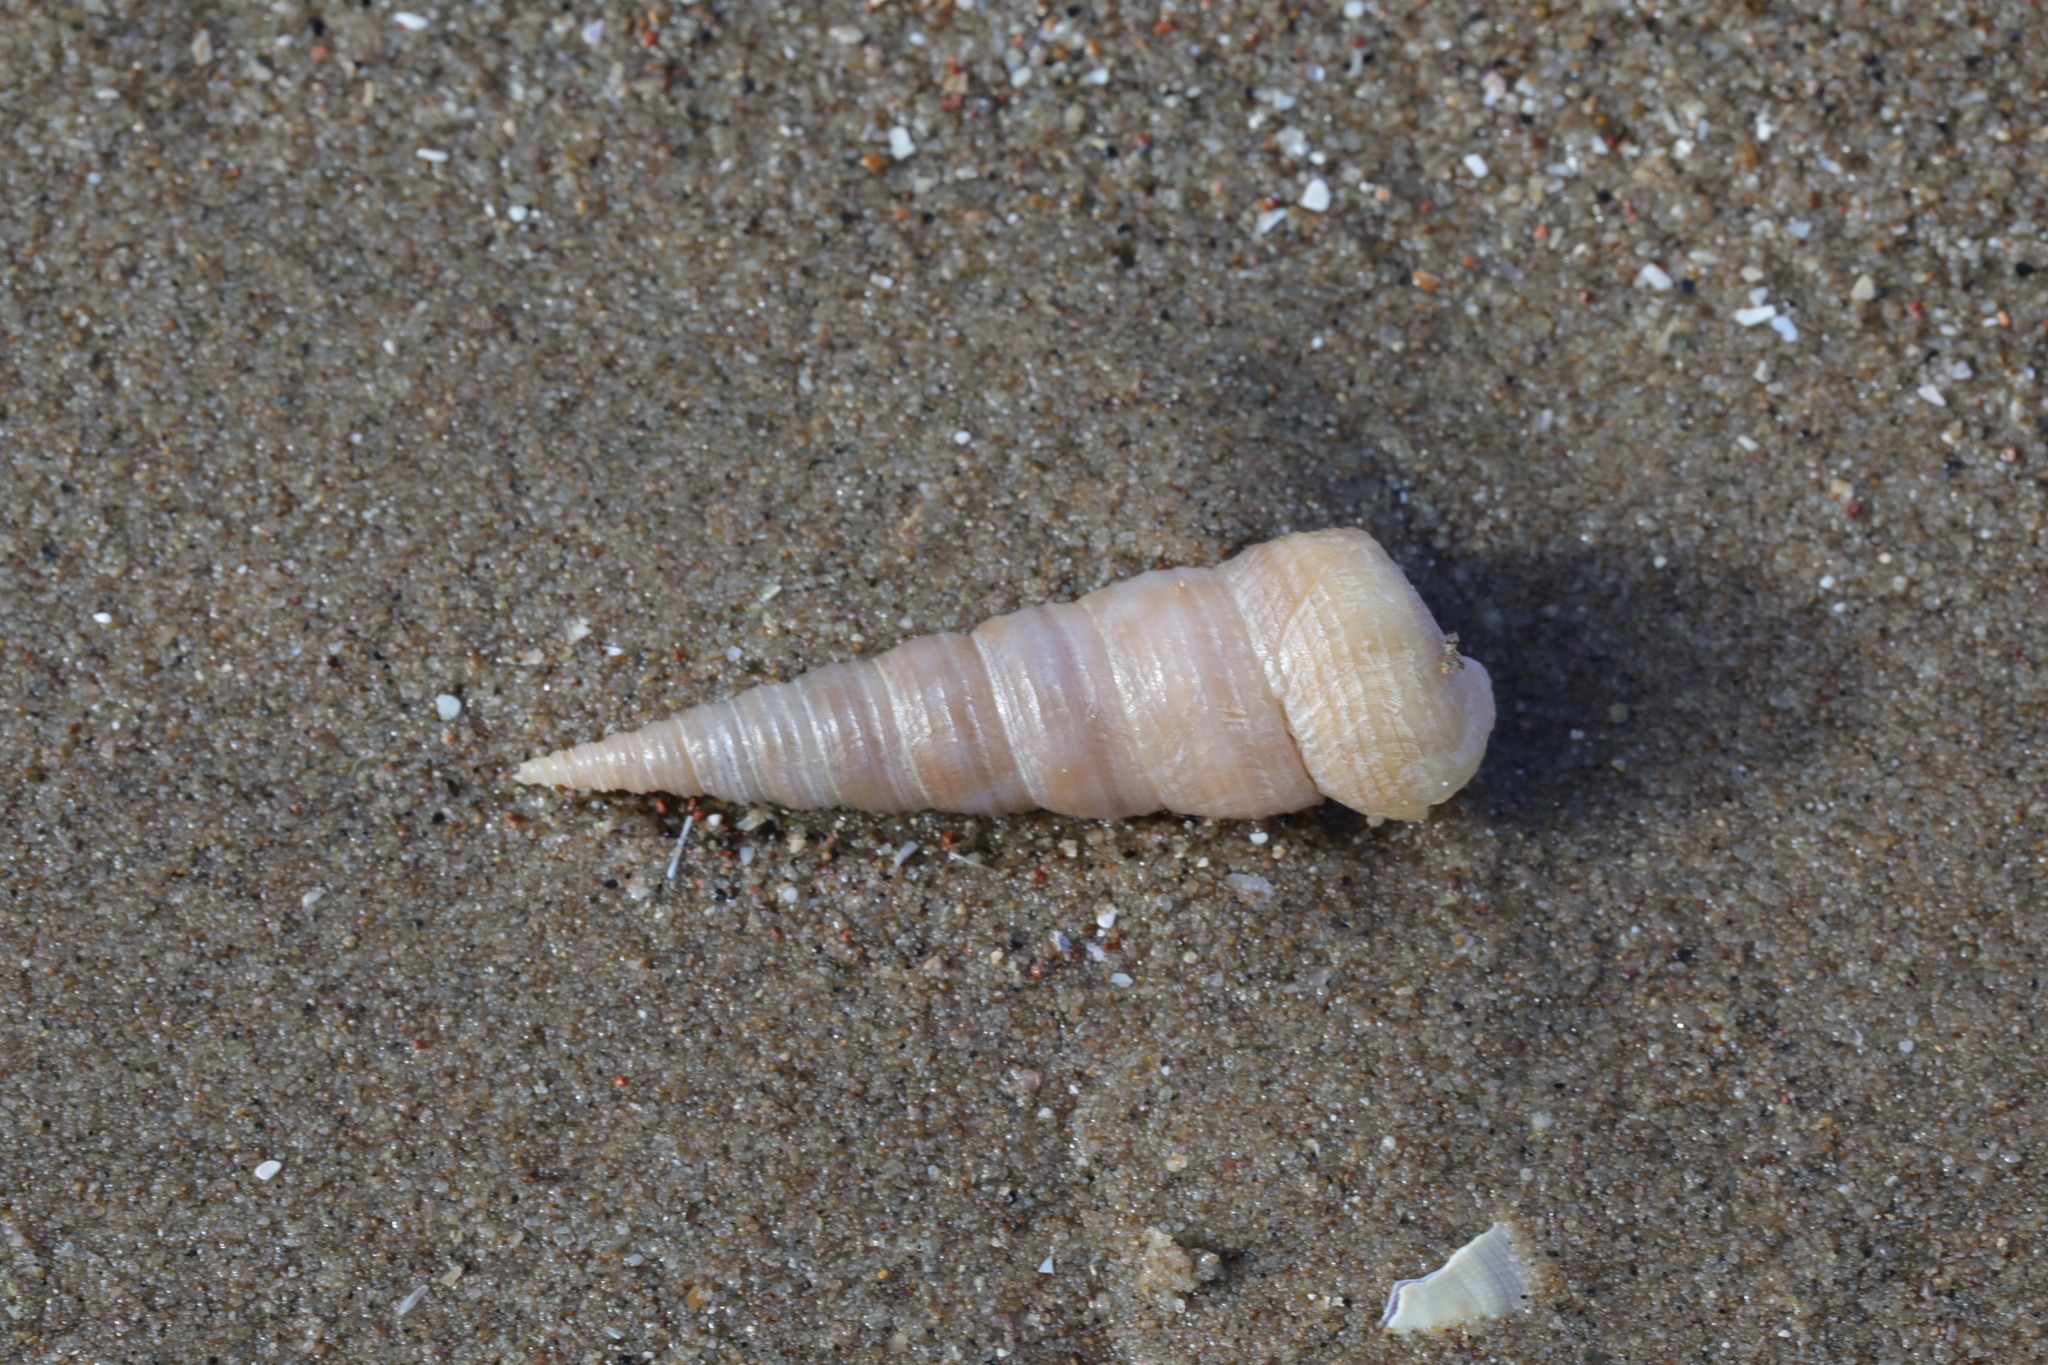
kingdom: Animalia
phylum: Mollusca
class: Gastropoda
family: Turritellidae
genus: Turritellinella
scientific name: Turritellinella tricarinata
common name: Auger shell
